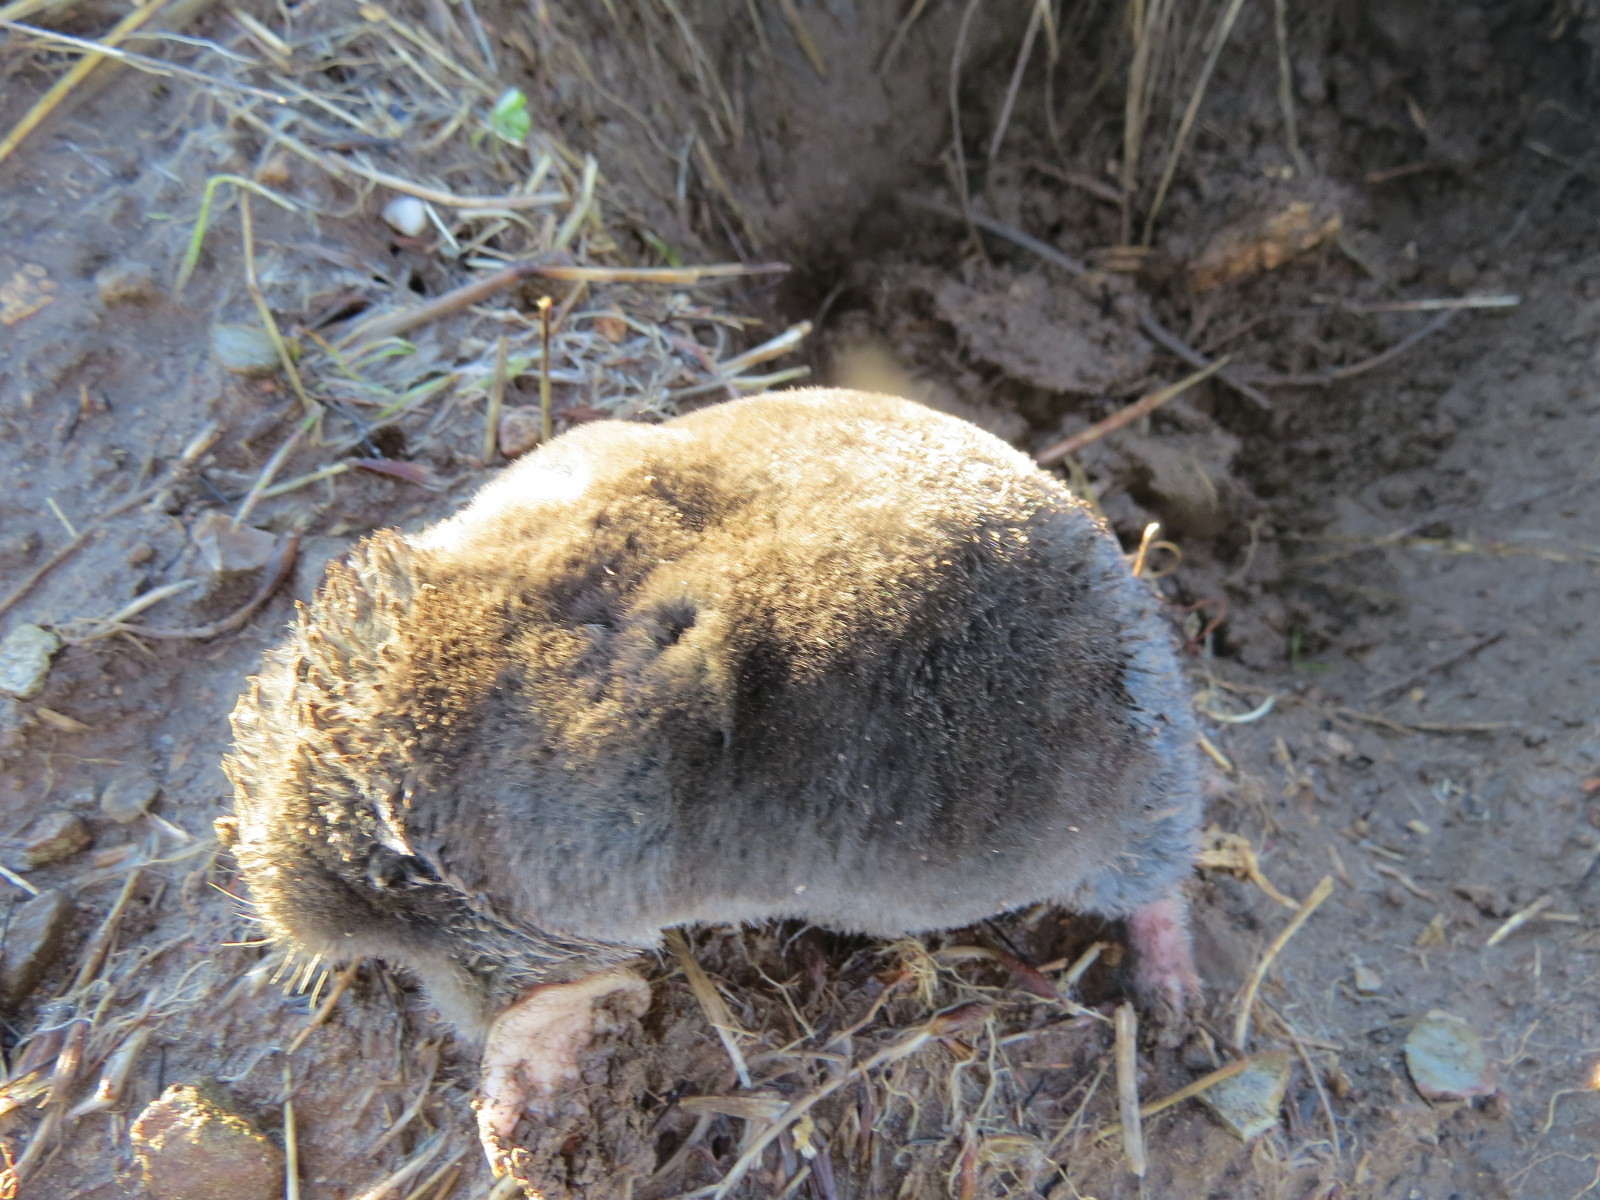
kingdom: Animalia
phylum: Chordata
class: Mammalia
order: Soricomorpha
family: Talpidae
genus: Scapanus
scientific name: Scapanus latimanus
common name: Broad-footed mole
